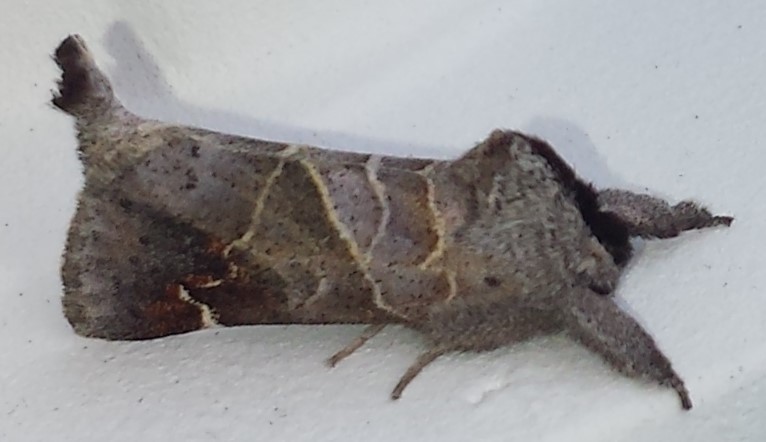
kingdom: Animalia
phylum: Arthropoda
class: Insecta
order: Lepidoptera
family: Notodontidae
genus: Clostera
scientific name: Clostera apicalis
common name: Apical prominent
